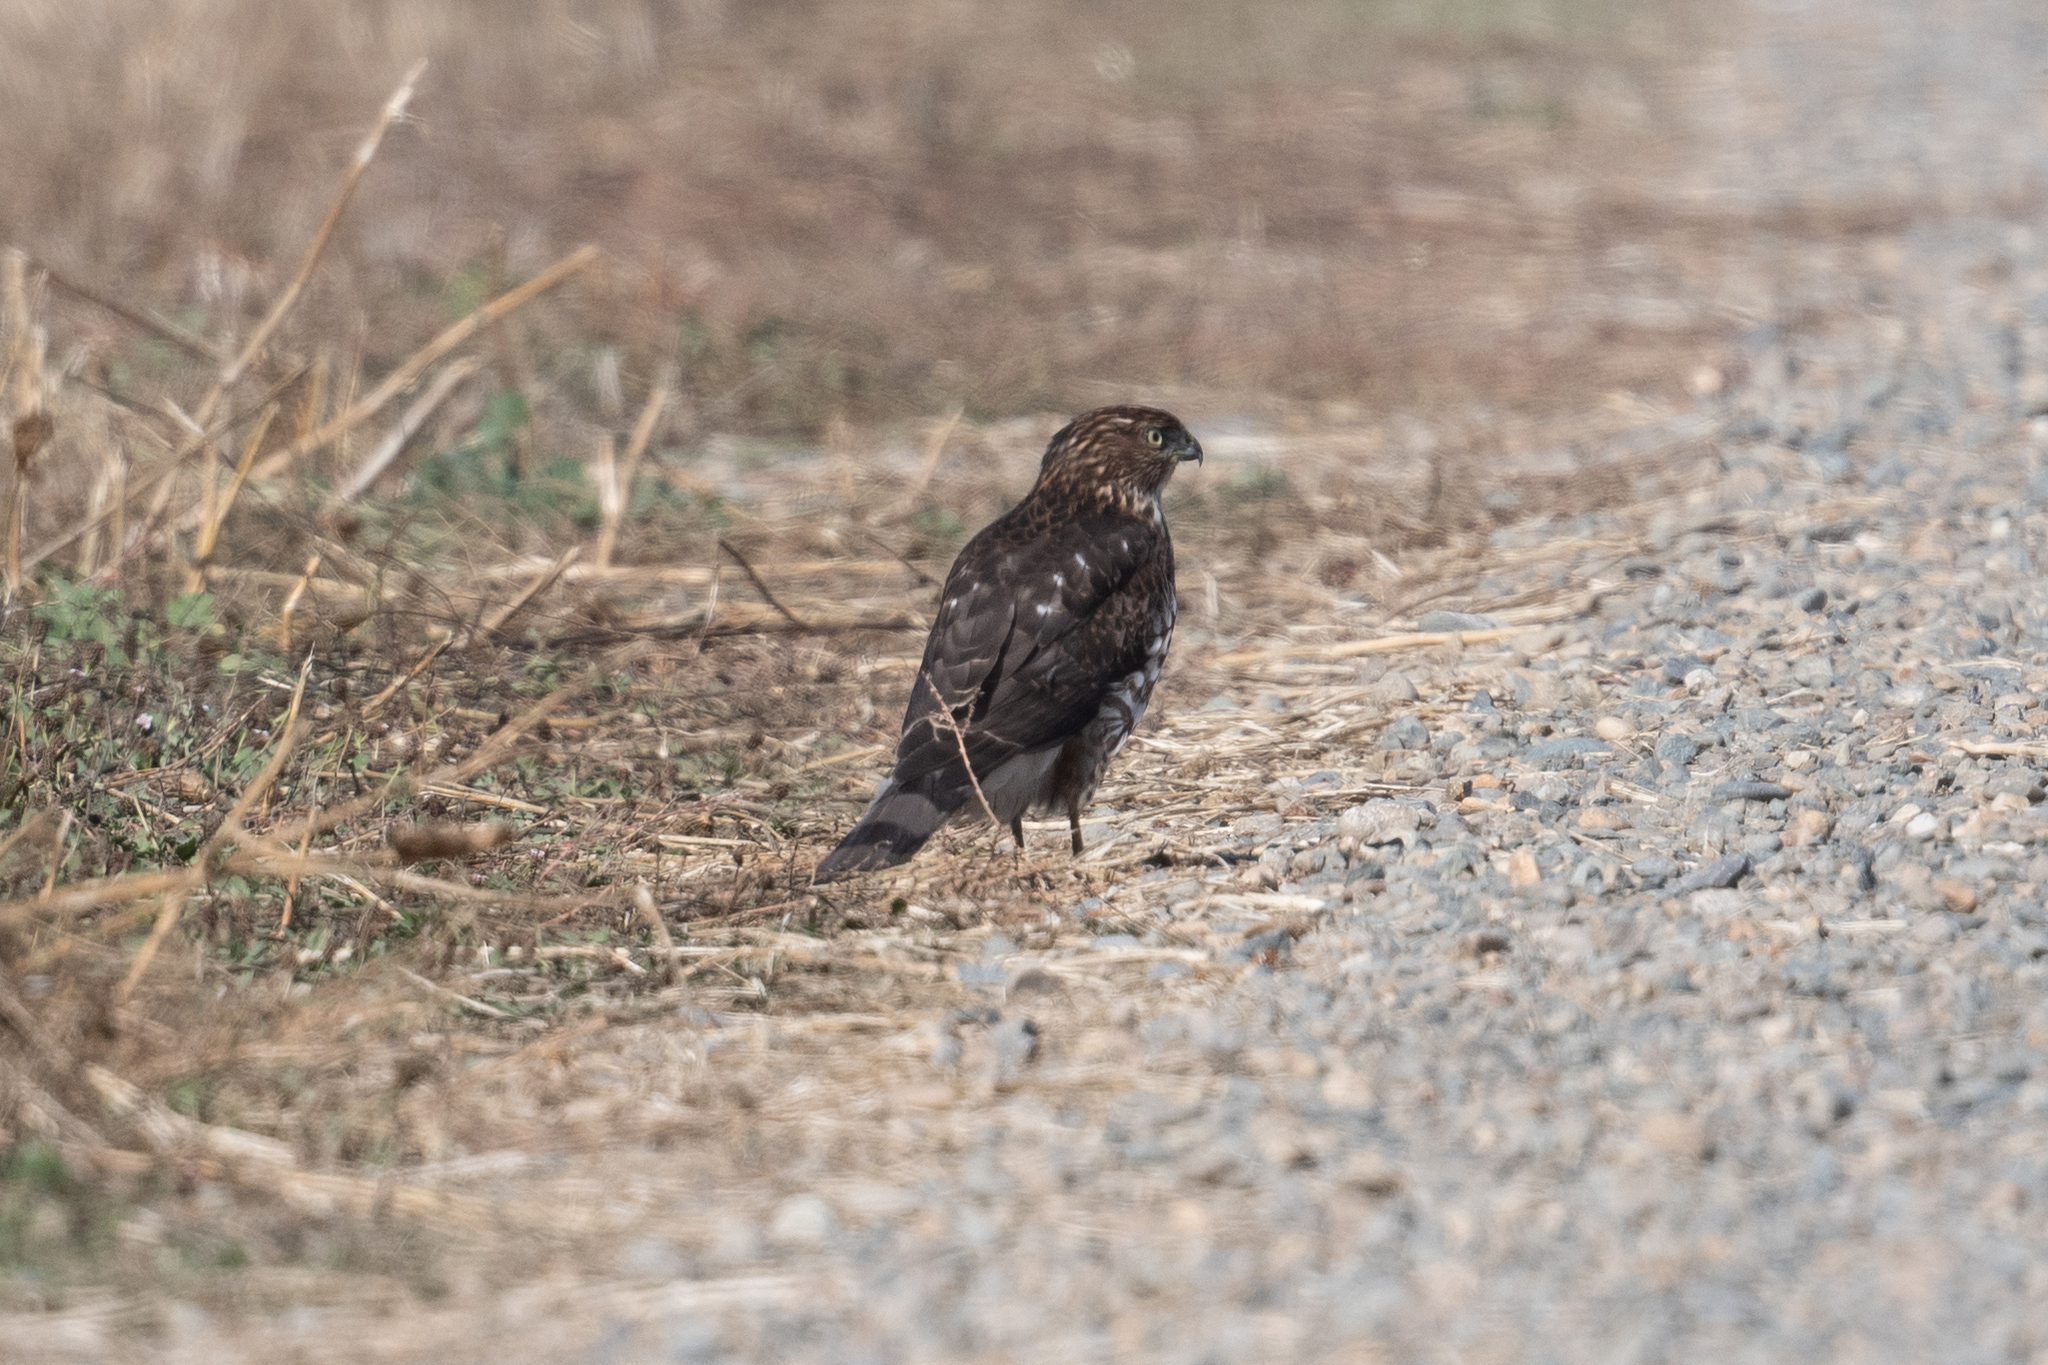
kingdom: Animalia
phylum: Chordata
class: Aves
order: Accipitriformes
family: Accipitridae
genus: Accipiter
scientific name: Accipiter cooperii
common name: Cooper's hawk
